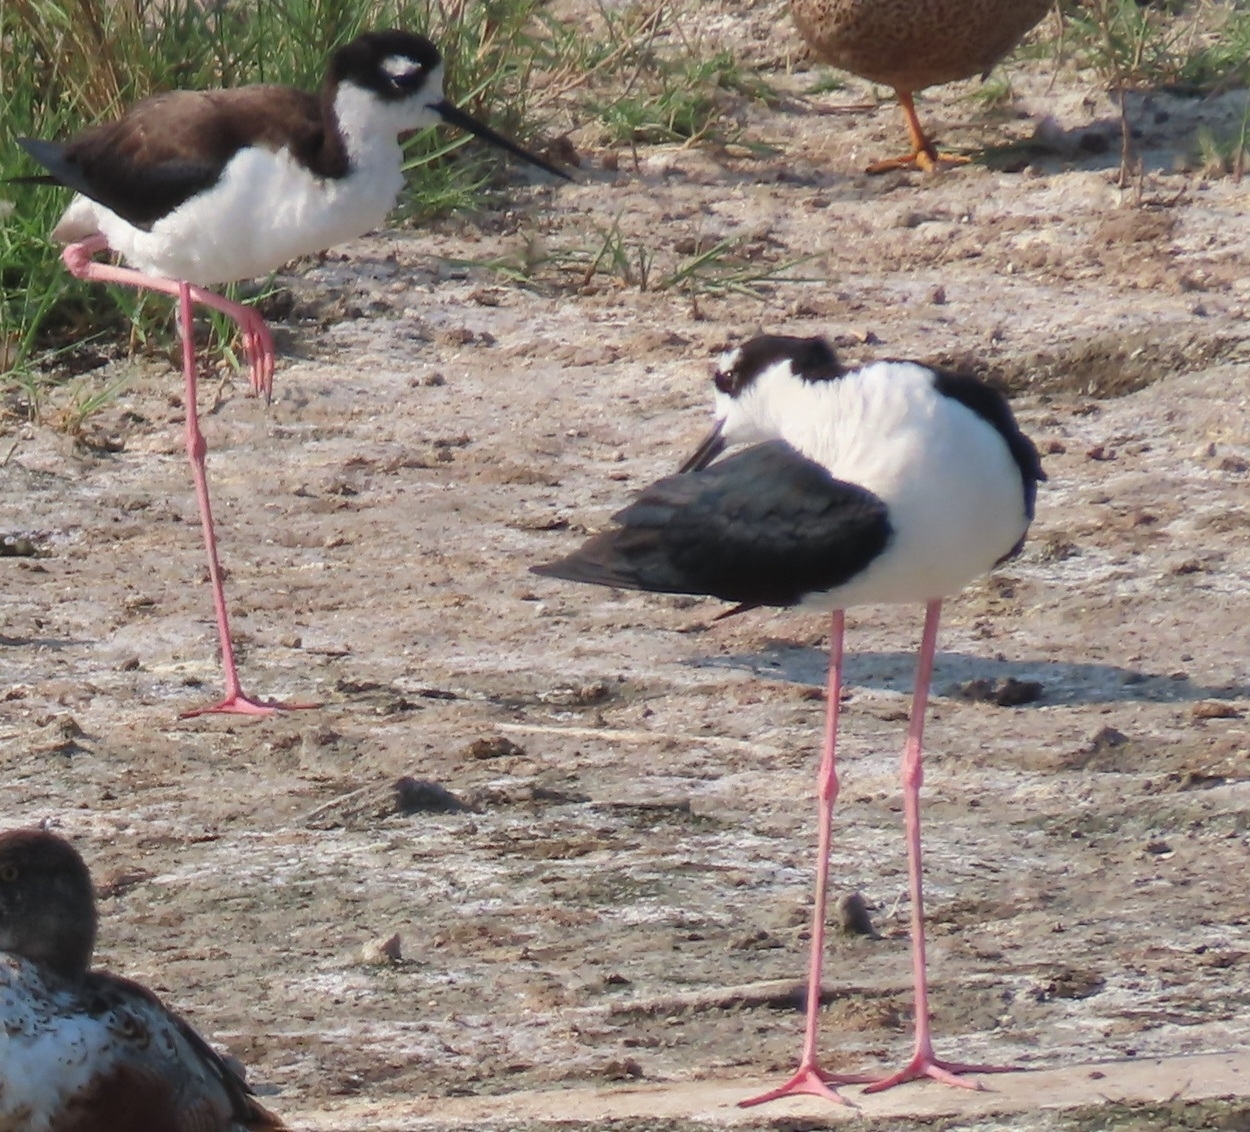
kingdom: Animalia
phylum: Chordata
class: Aves
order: Charadriiformes
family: Recurvirostridae
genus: Himantopus
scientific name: Himantopus mexicanus
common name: Black-necked stilt
